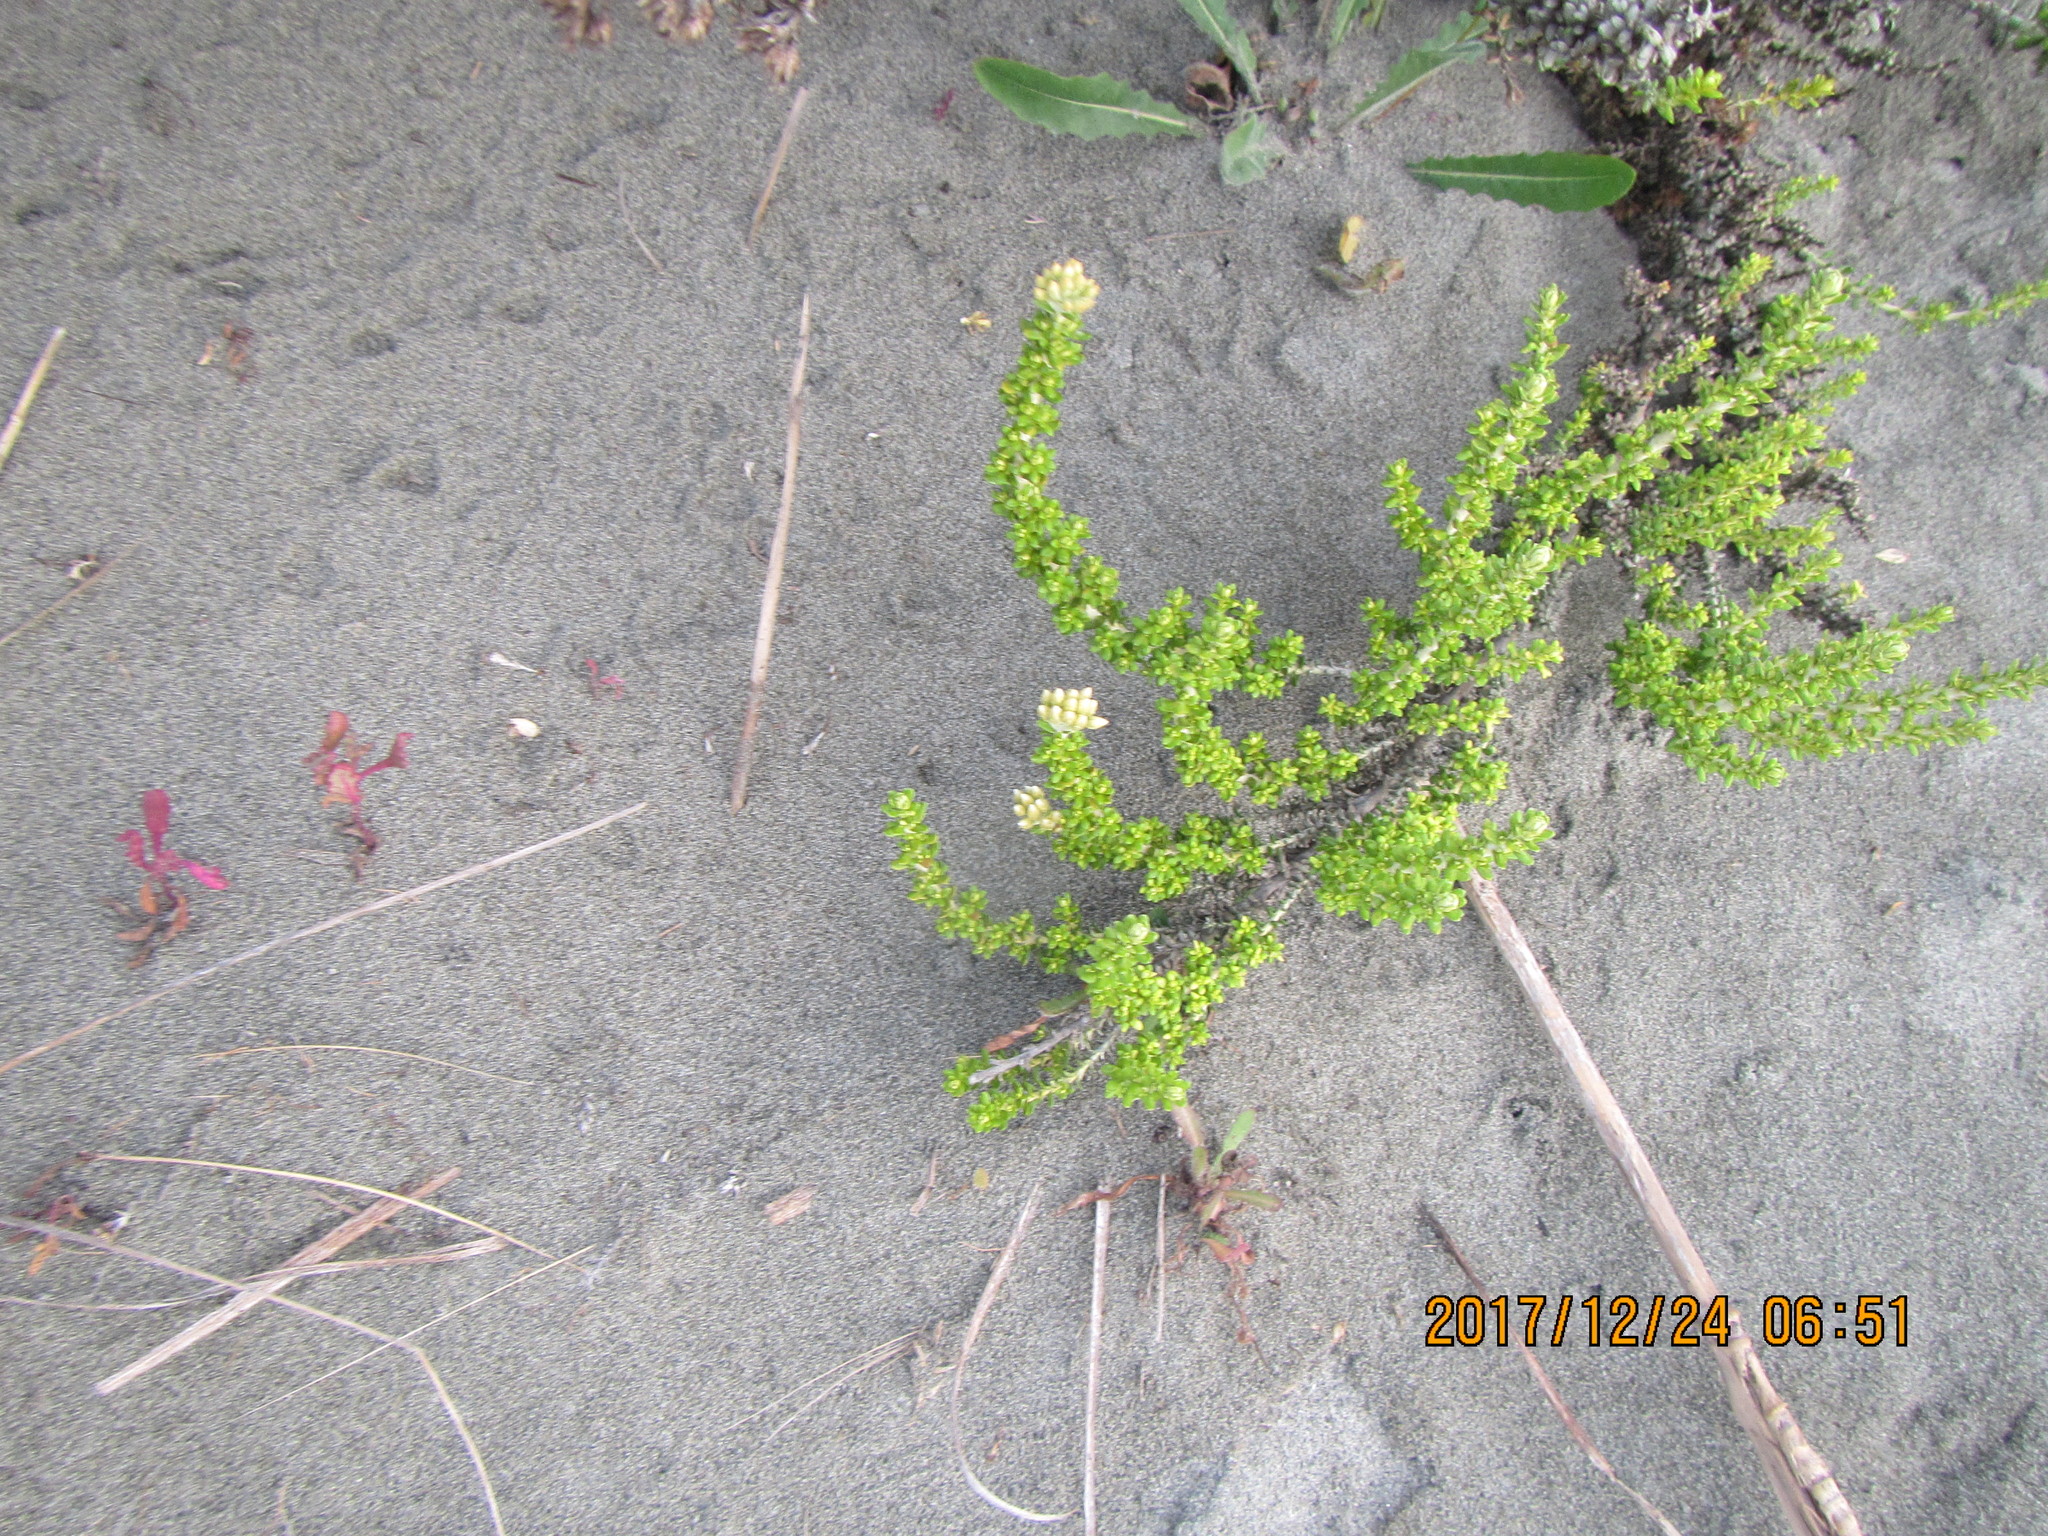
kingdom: Plantae
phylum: Tracheophyta
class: Magnoliopsida
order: Asterales
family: Asteraceae
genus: Ozothamnus
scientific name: Ozothamnus leptophyllus
